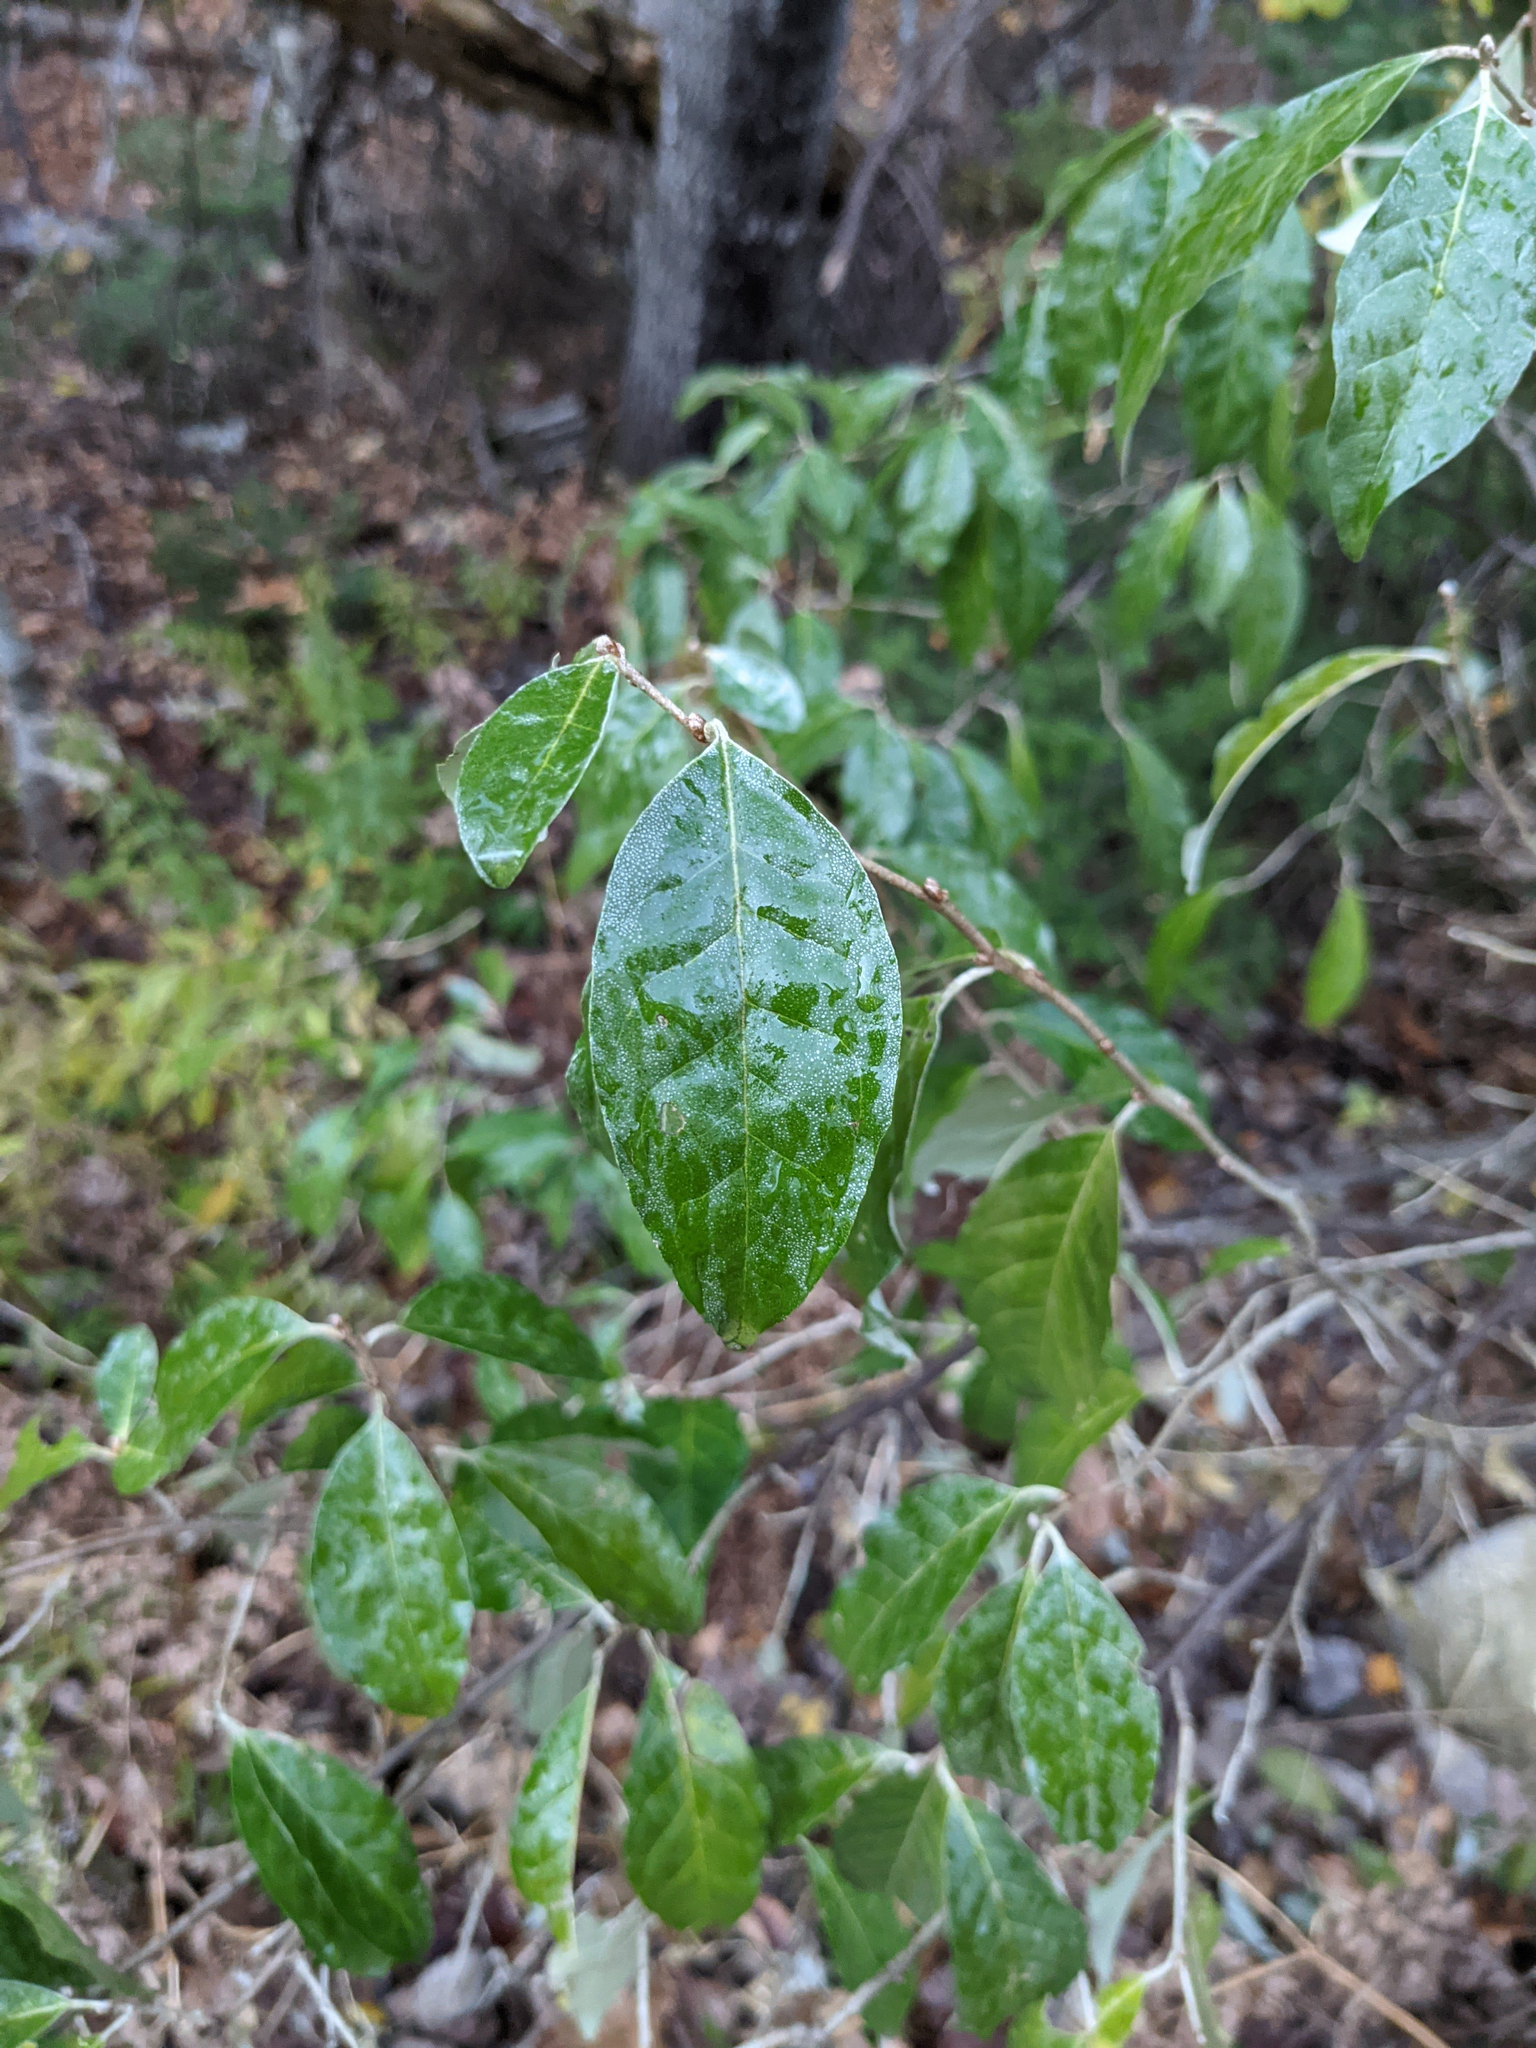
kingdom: Plantae
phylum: Tracheophyta
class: Magnoliopsida
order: Rosales
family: Elaeagnaceae
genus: Elaeagnus
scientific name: Elaeagnus umbellata
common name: Autumn olive
